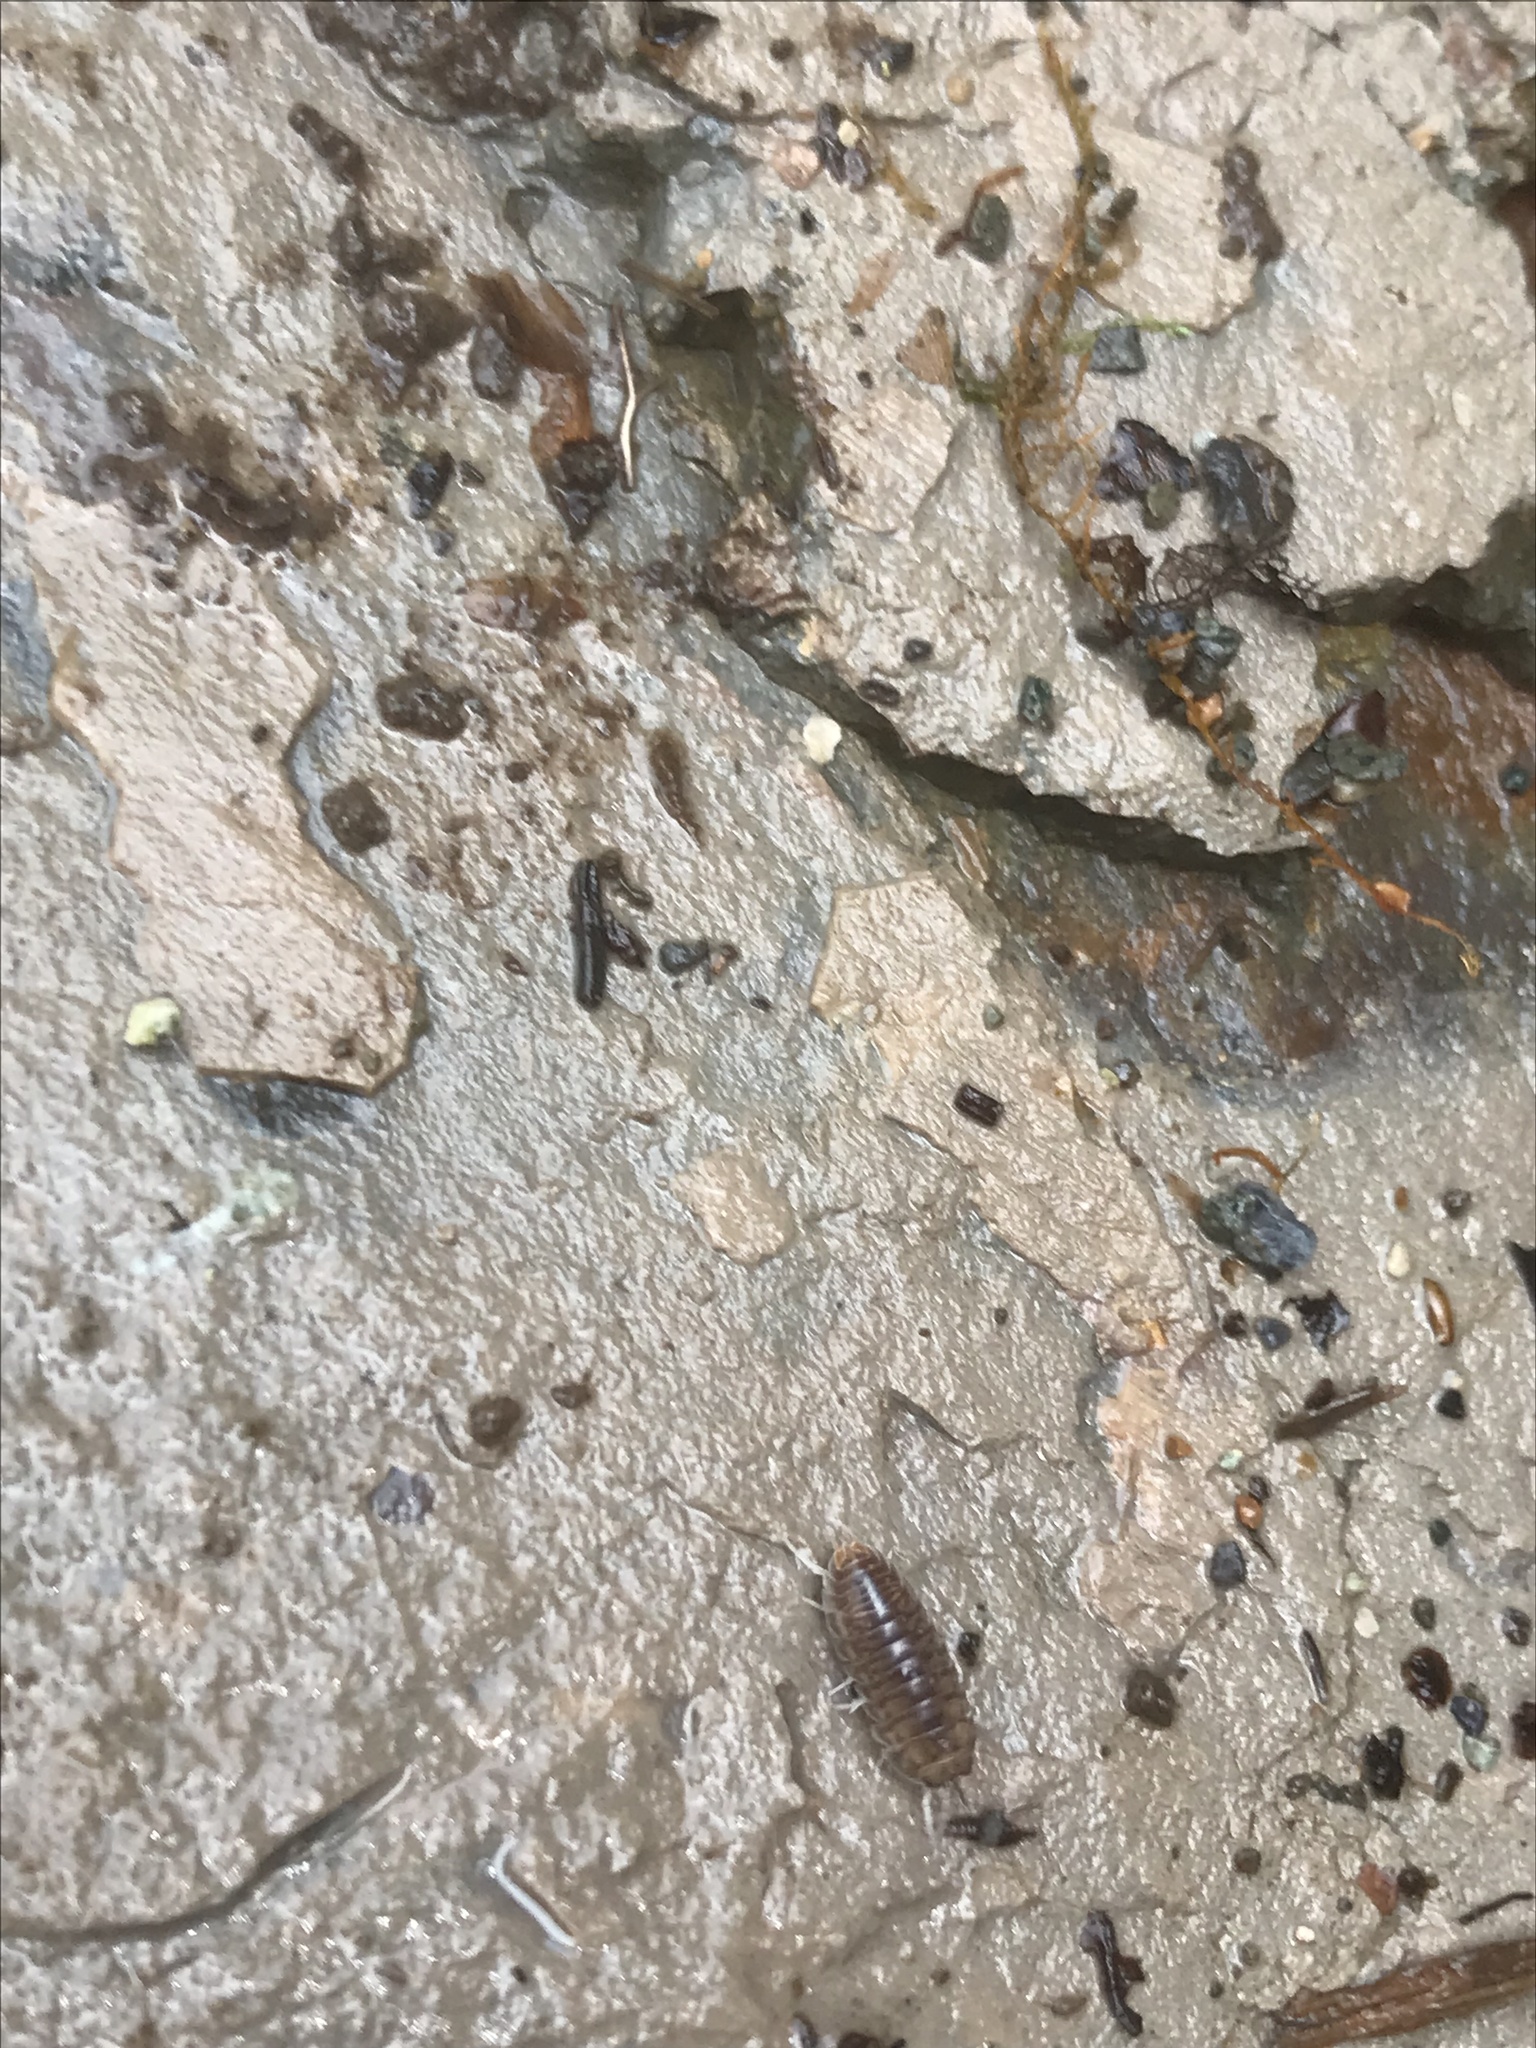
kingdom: Animalia
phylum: Arthropoda
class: Malacostraca
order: Isopoda
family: Cylisticidae
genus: Cylisticus
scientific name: Cylisticus convexus
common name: Curly woodlouse
